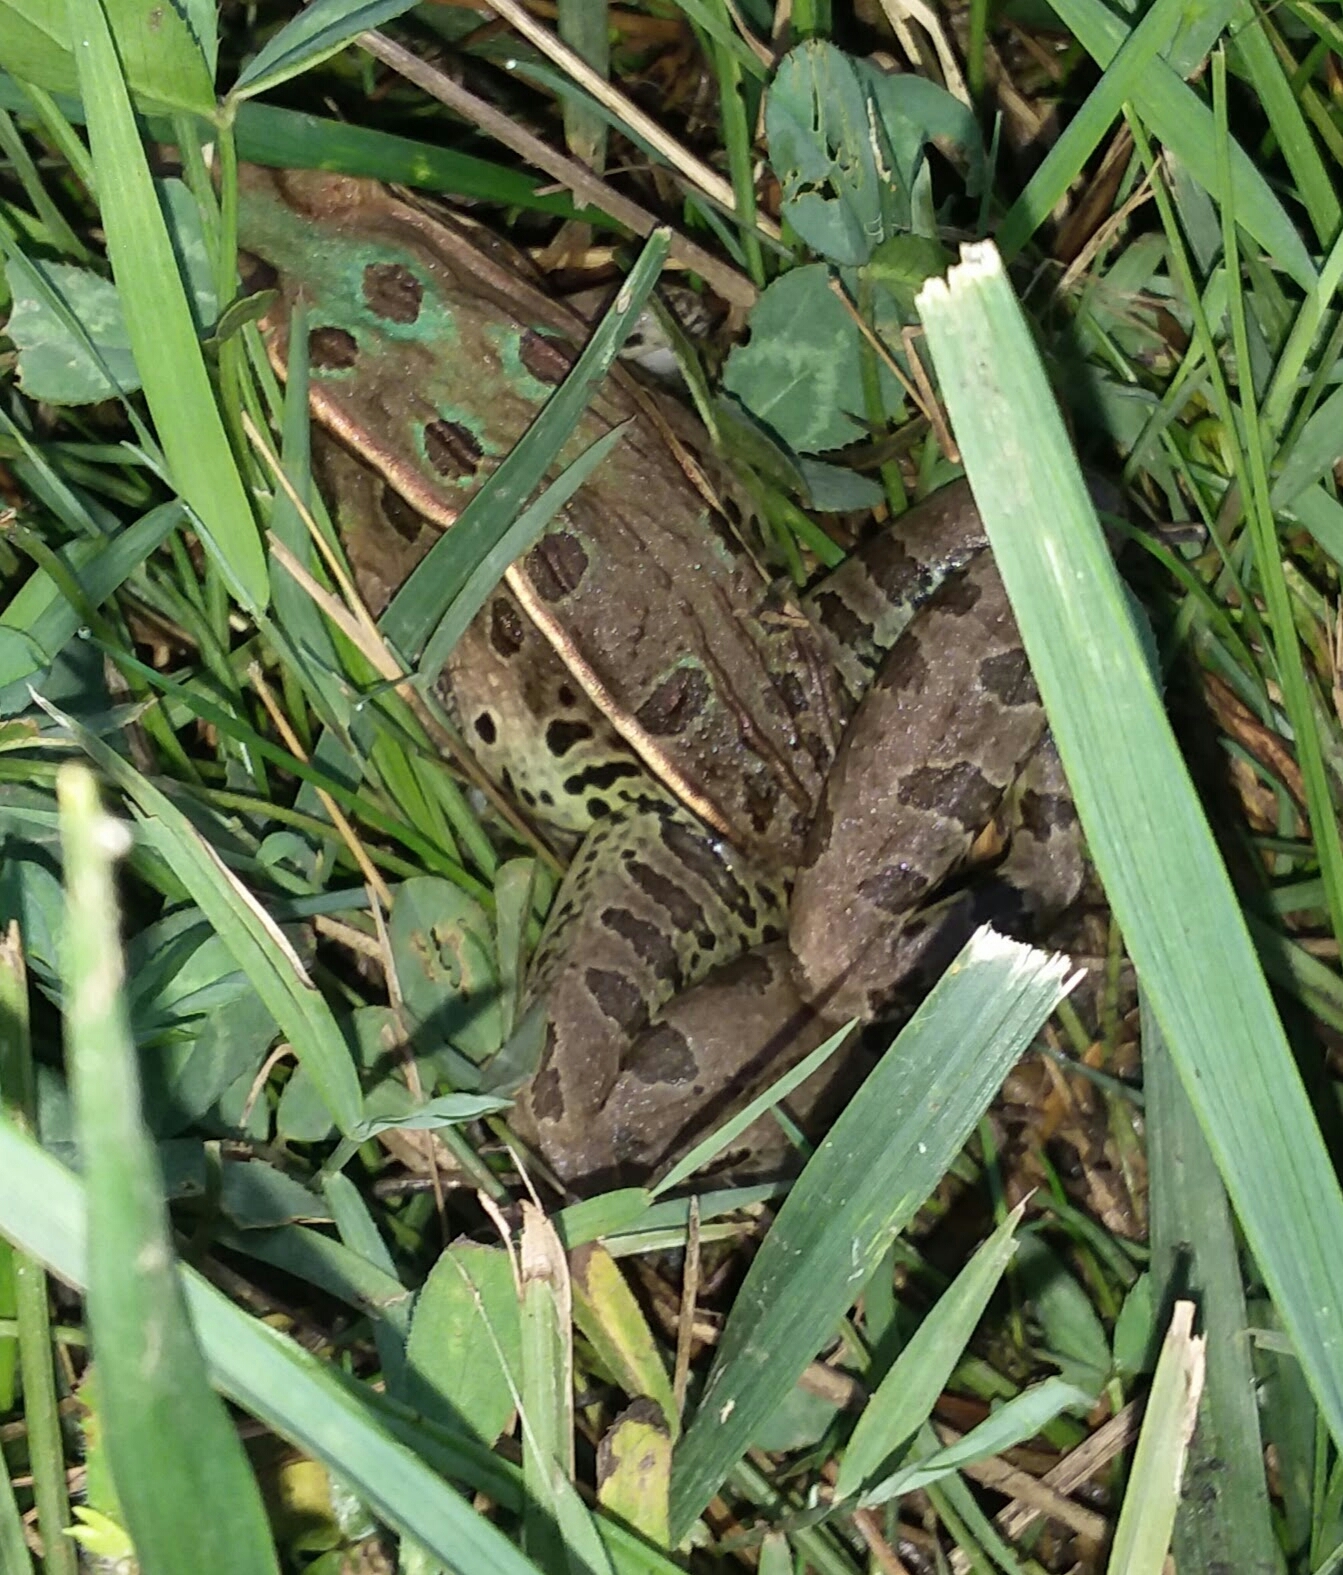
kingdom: Animalia
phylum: Chordata
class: Amphibia
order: Anura
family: Ranidae
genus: Lithobates
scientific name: Lithobates sphenocephalus
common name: Southern leopard frog
